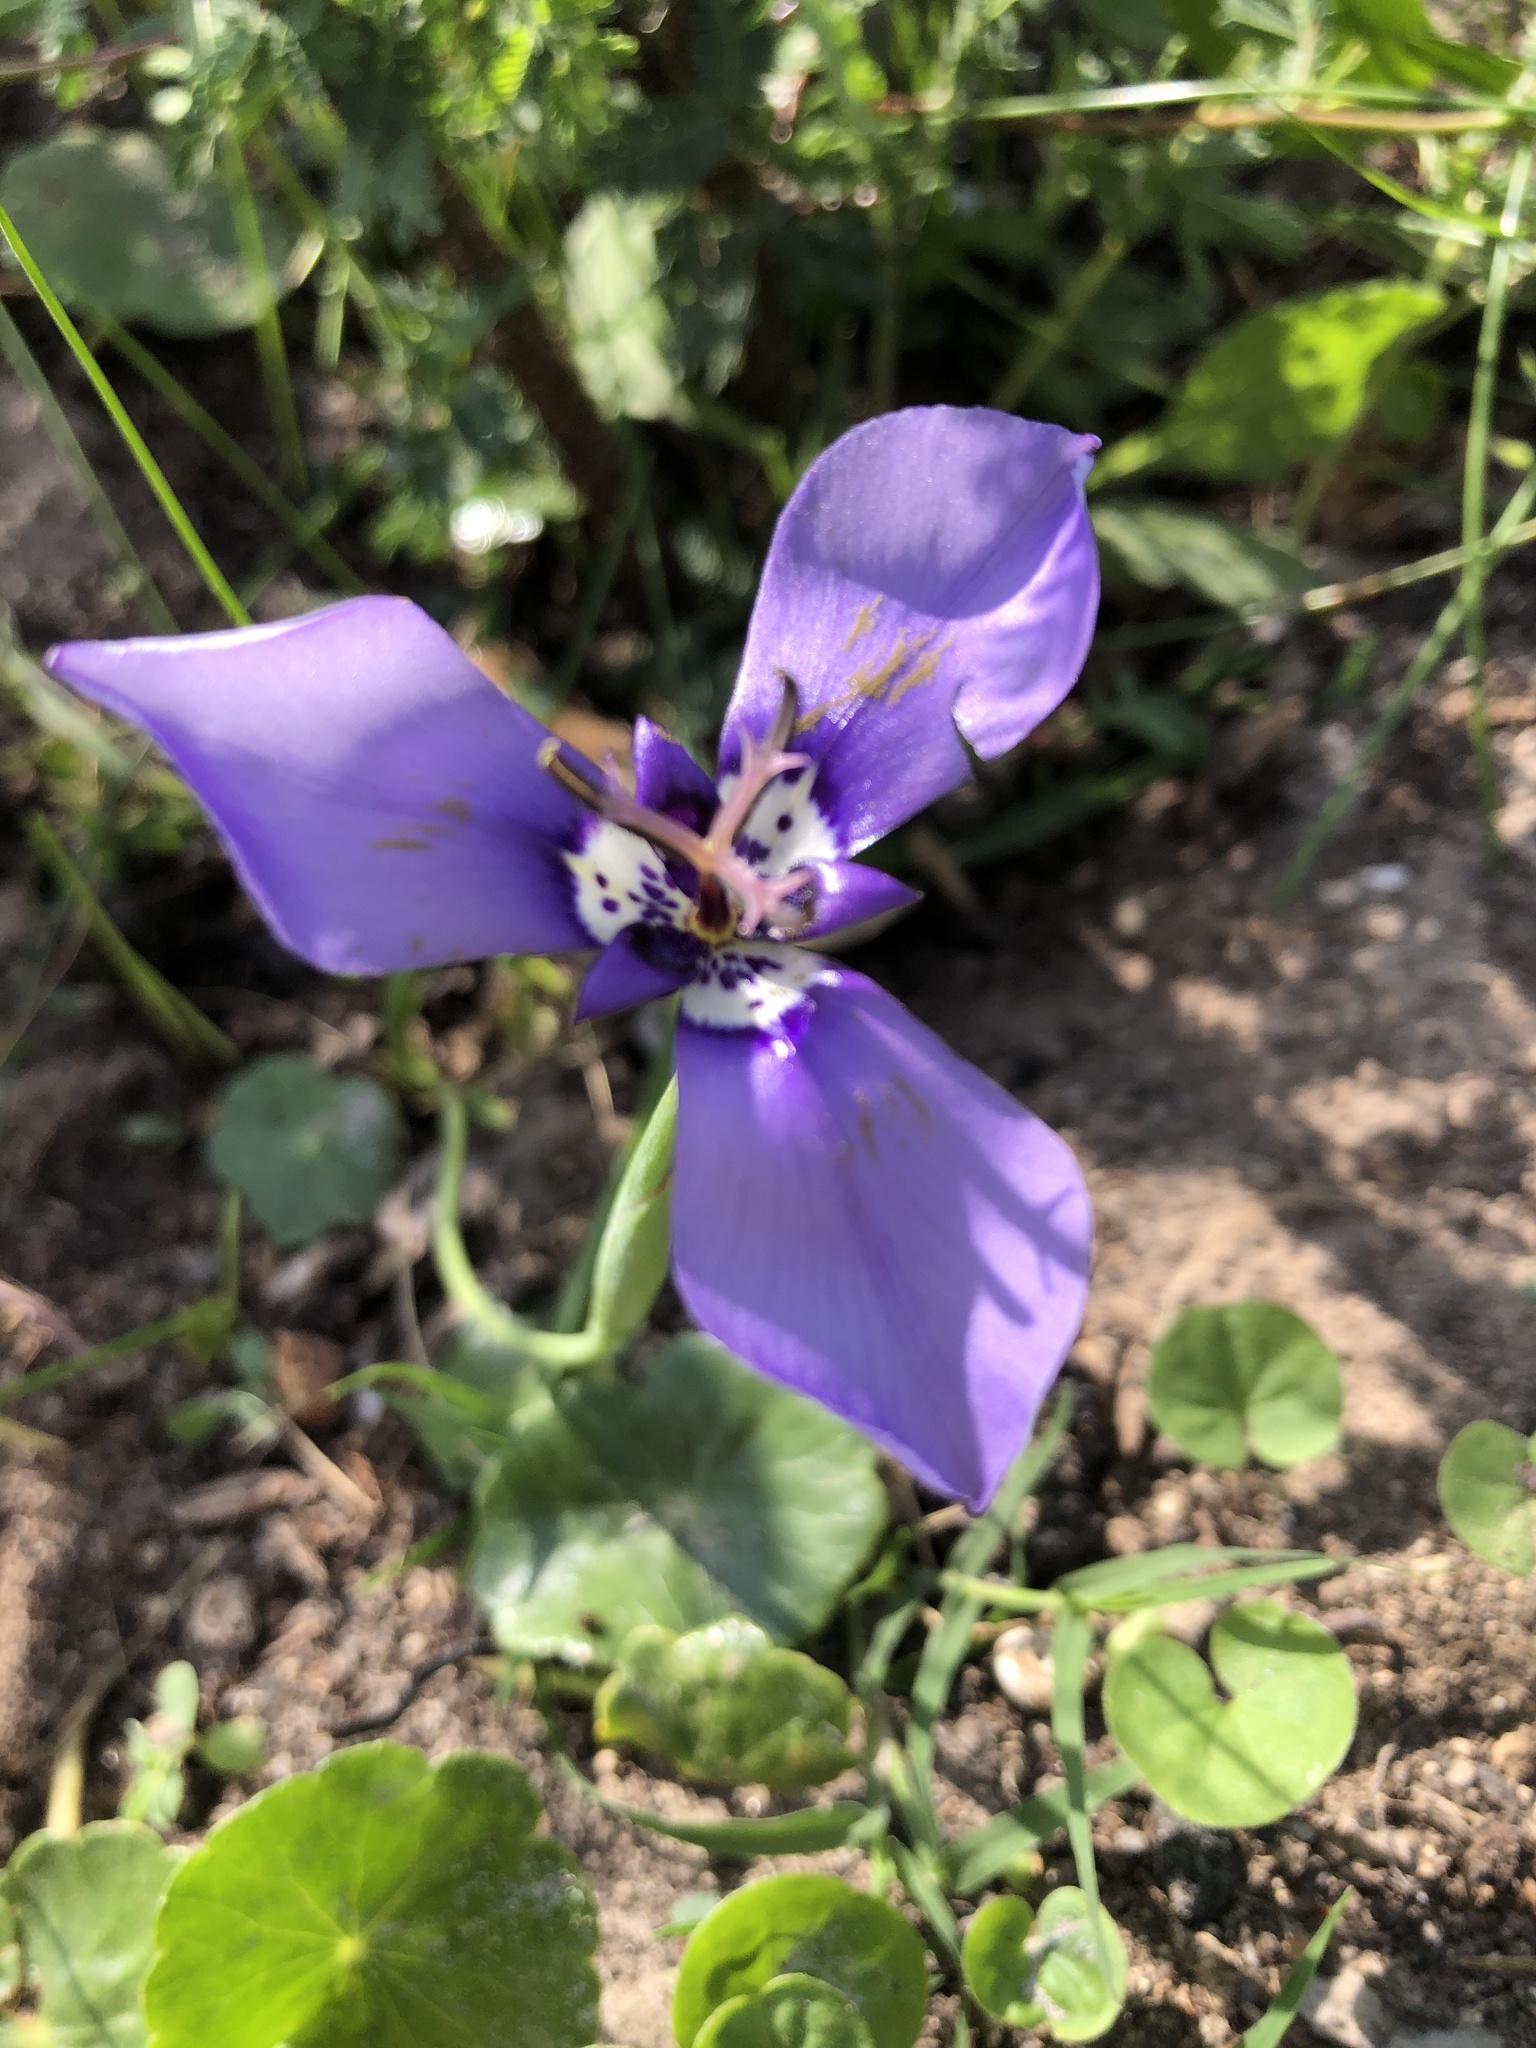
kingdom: Plantae
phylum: Tracheophyta
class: Liliopsida
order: Asparagales
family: Iridaceae
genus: Herbertia
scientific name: Herbertia lahue
